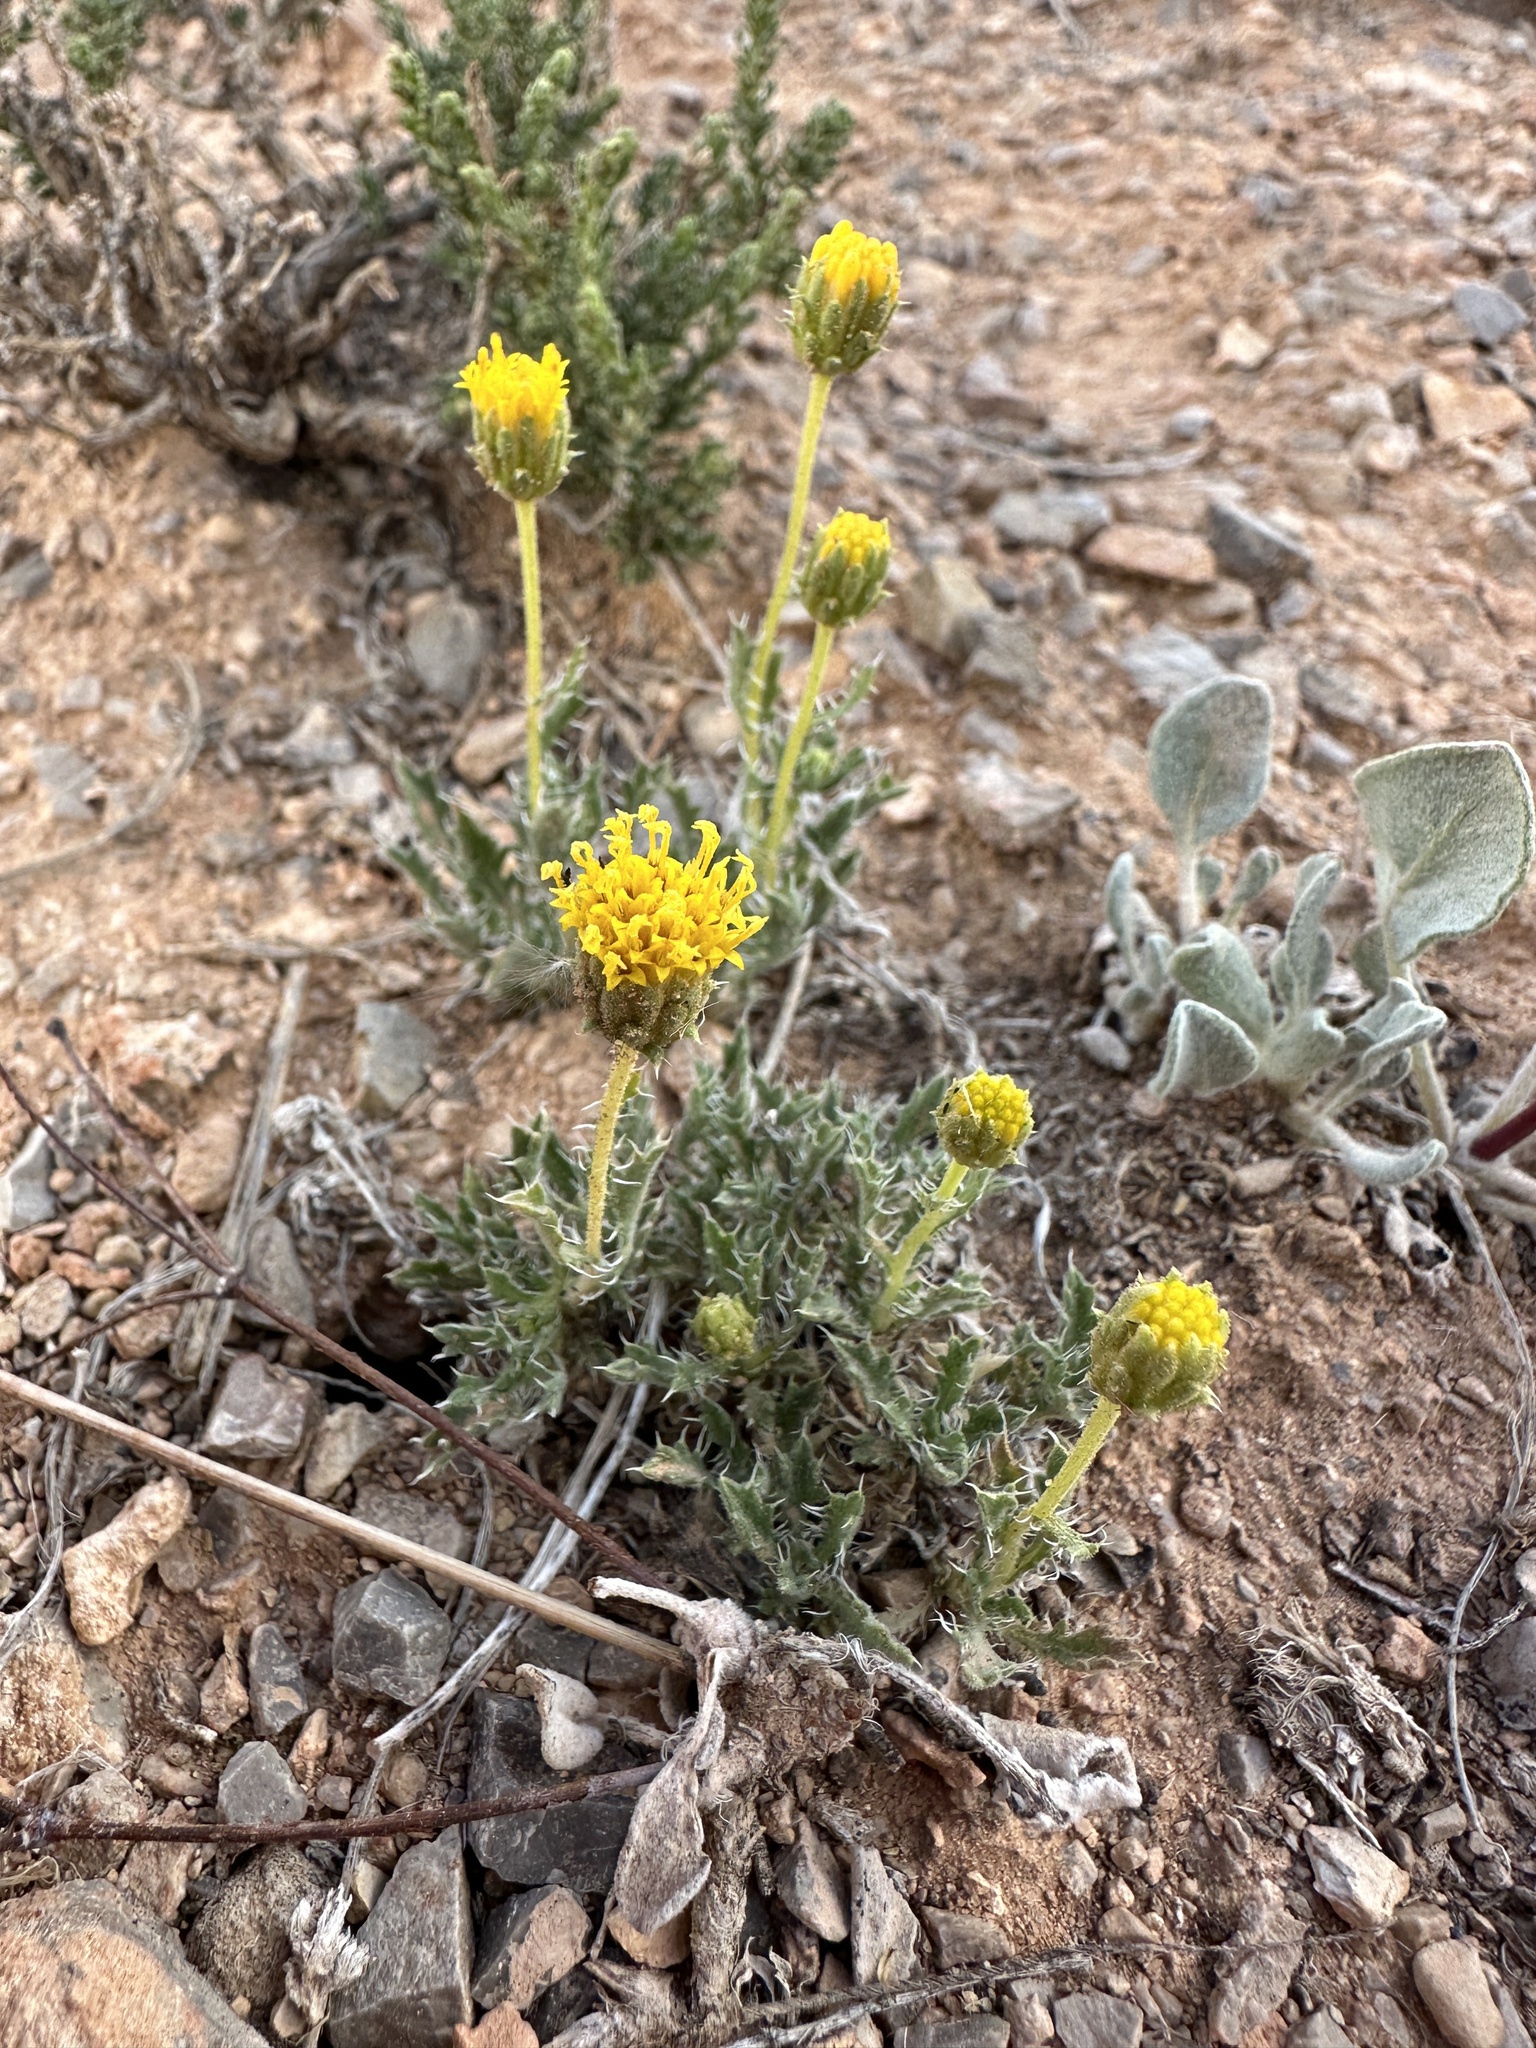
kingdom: Plantae
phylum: Tracheophyta
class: Magnoliopsida
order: Asterales
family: Asteraceae
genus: Xanthisma
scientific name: Xanthisma grindelioides
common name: Goldenweed
